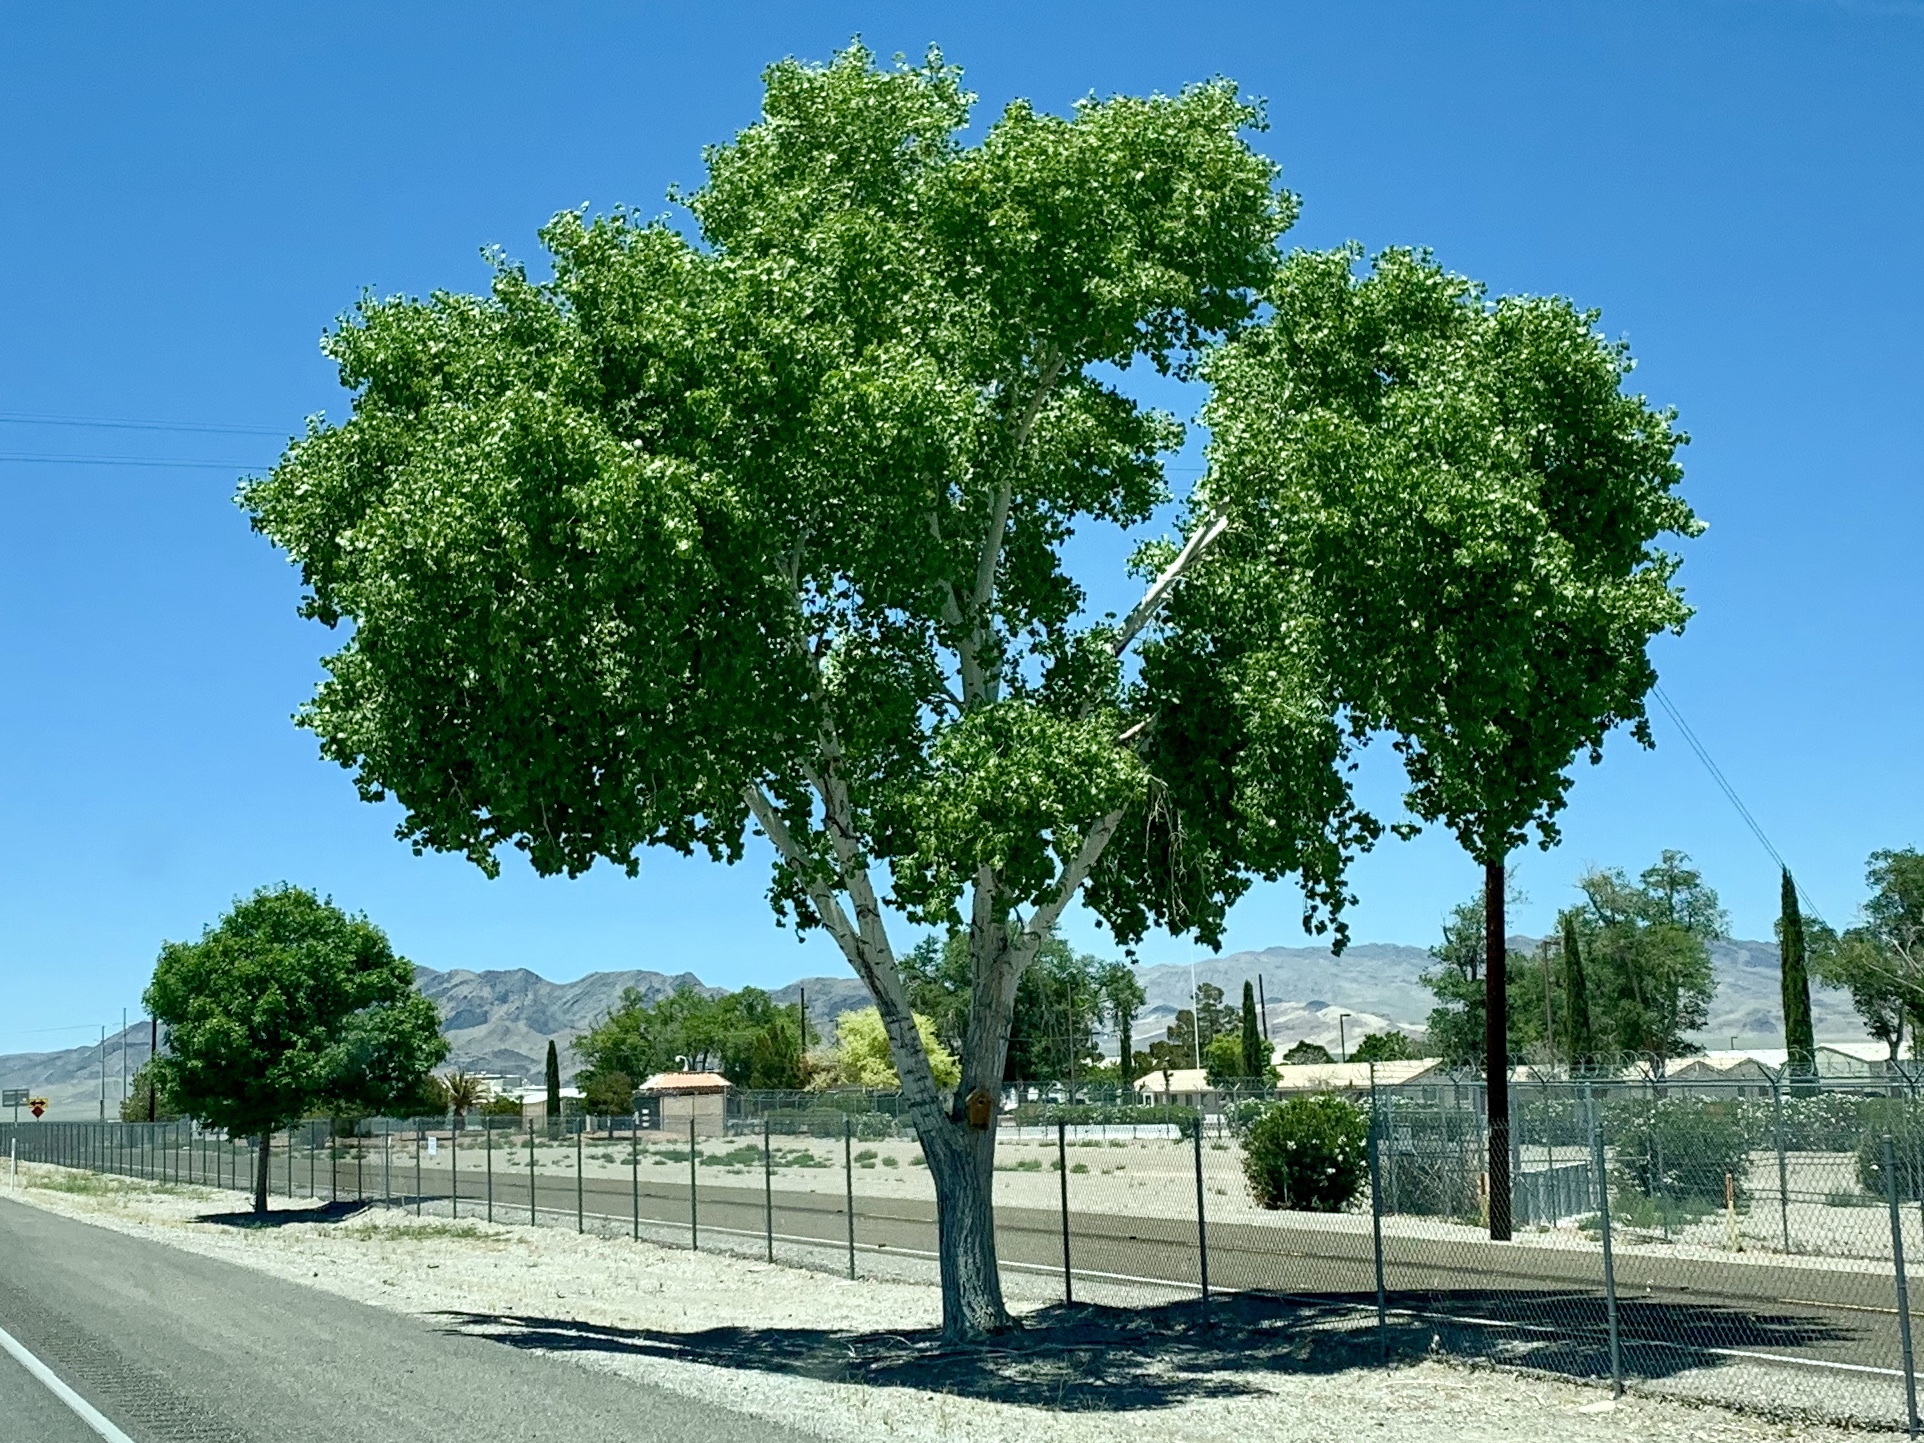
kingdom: Plantae
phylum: Tracheophyta
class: Magnoliopsida
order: Malpighiales
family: Salicaceae
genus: Populus
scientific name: Populus fremontii
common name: Fremont's cottonwood
